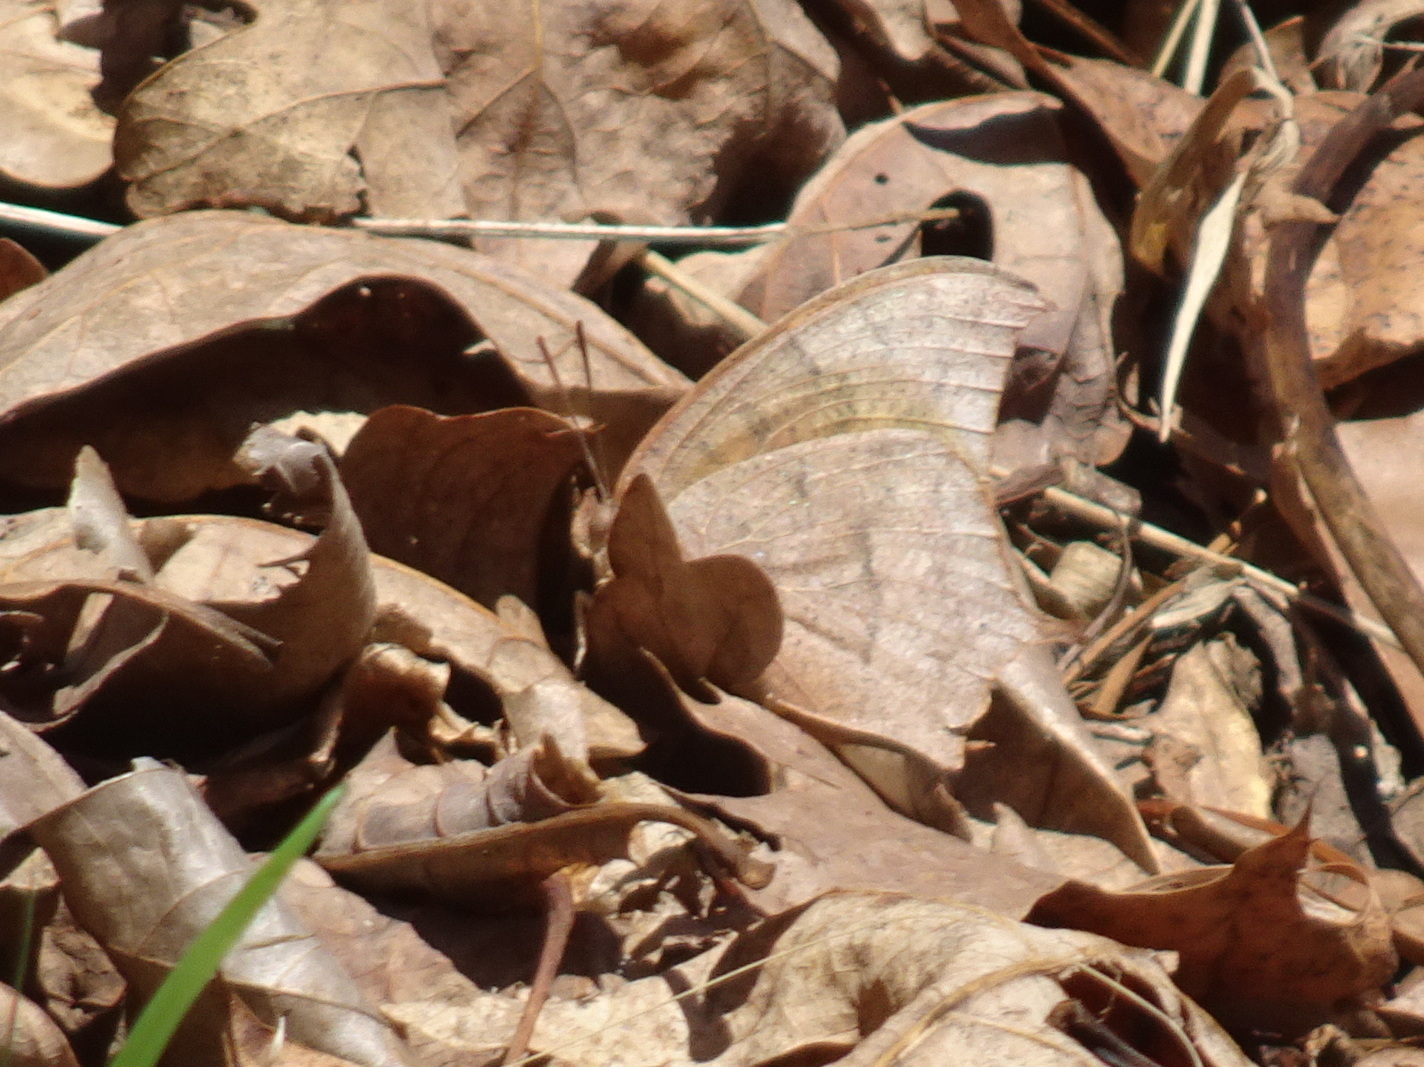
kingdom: Animalia
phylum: Arthropoda
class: Insecta
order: Lepidoptera
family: Nymphalidae
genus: Anaea
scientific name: Anaea andria
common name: Goatweed leafwing
